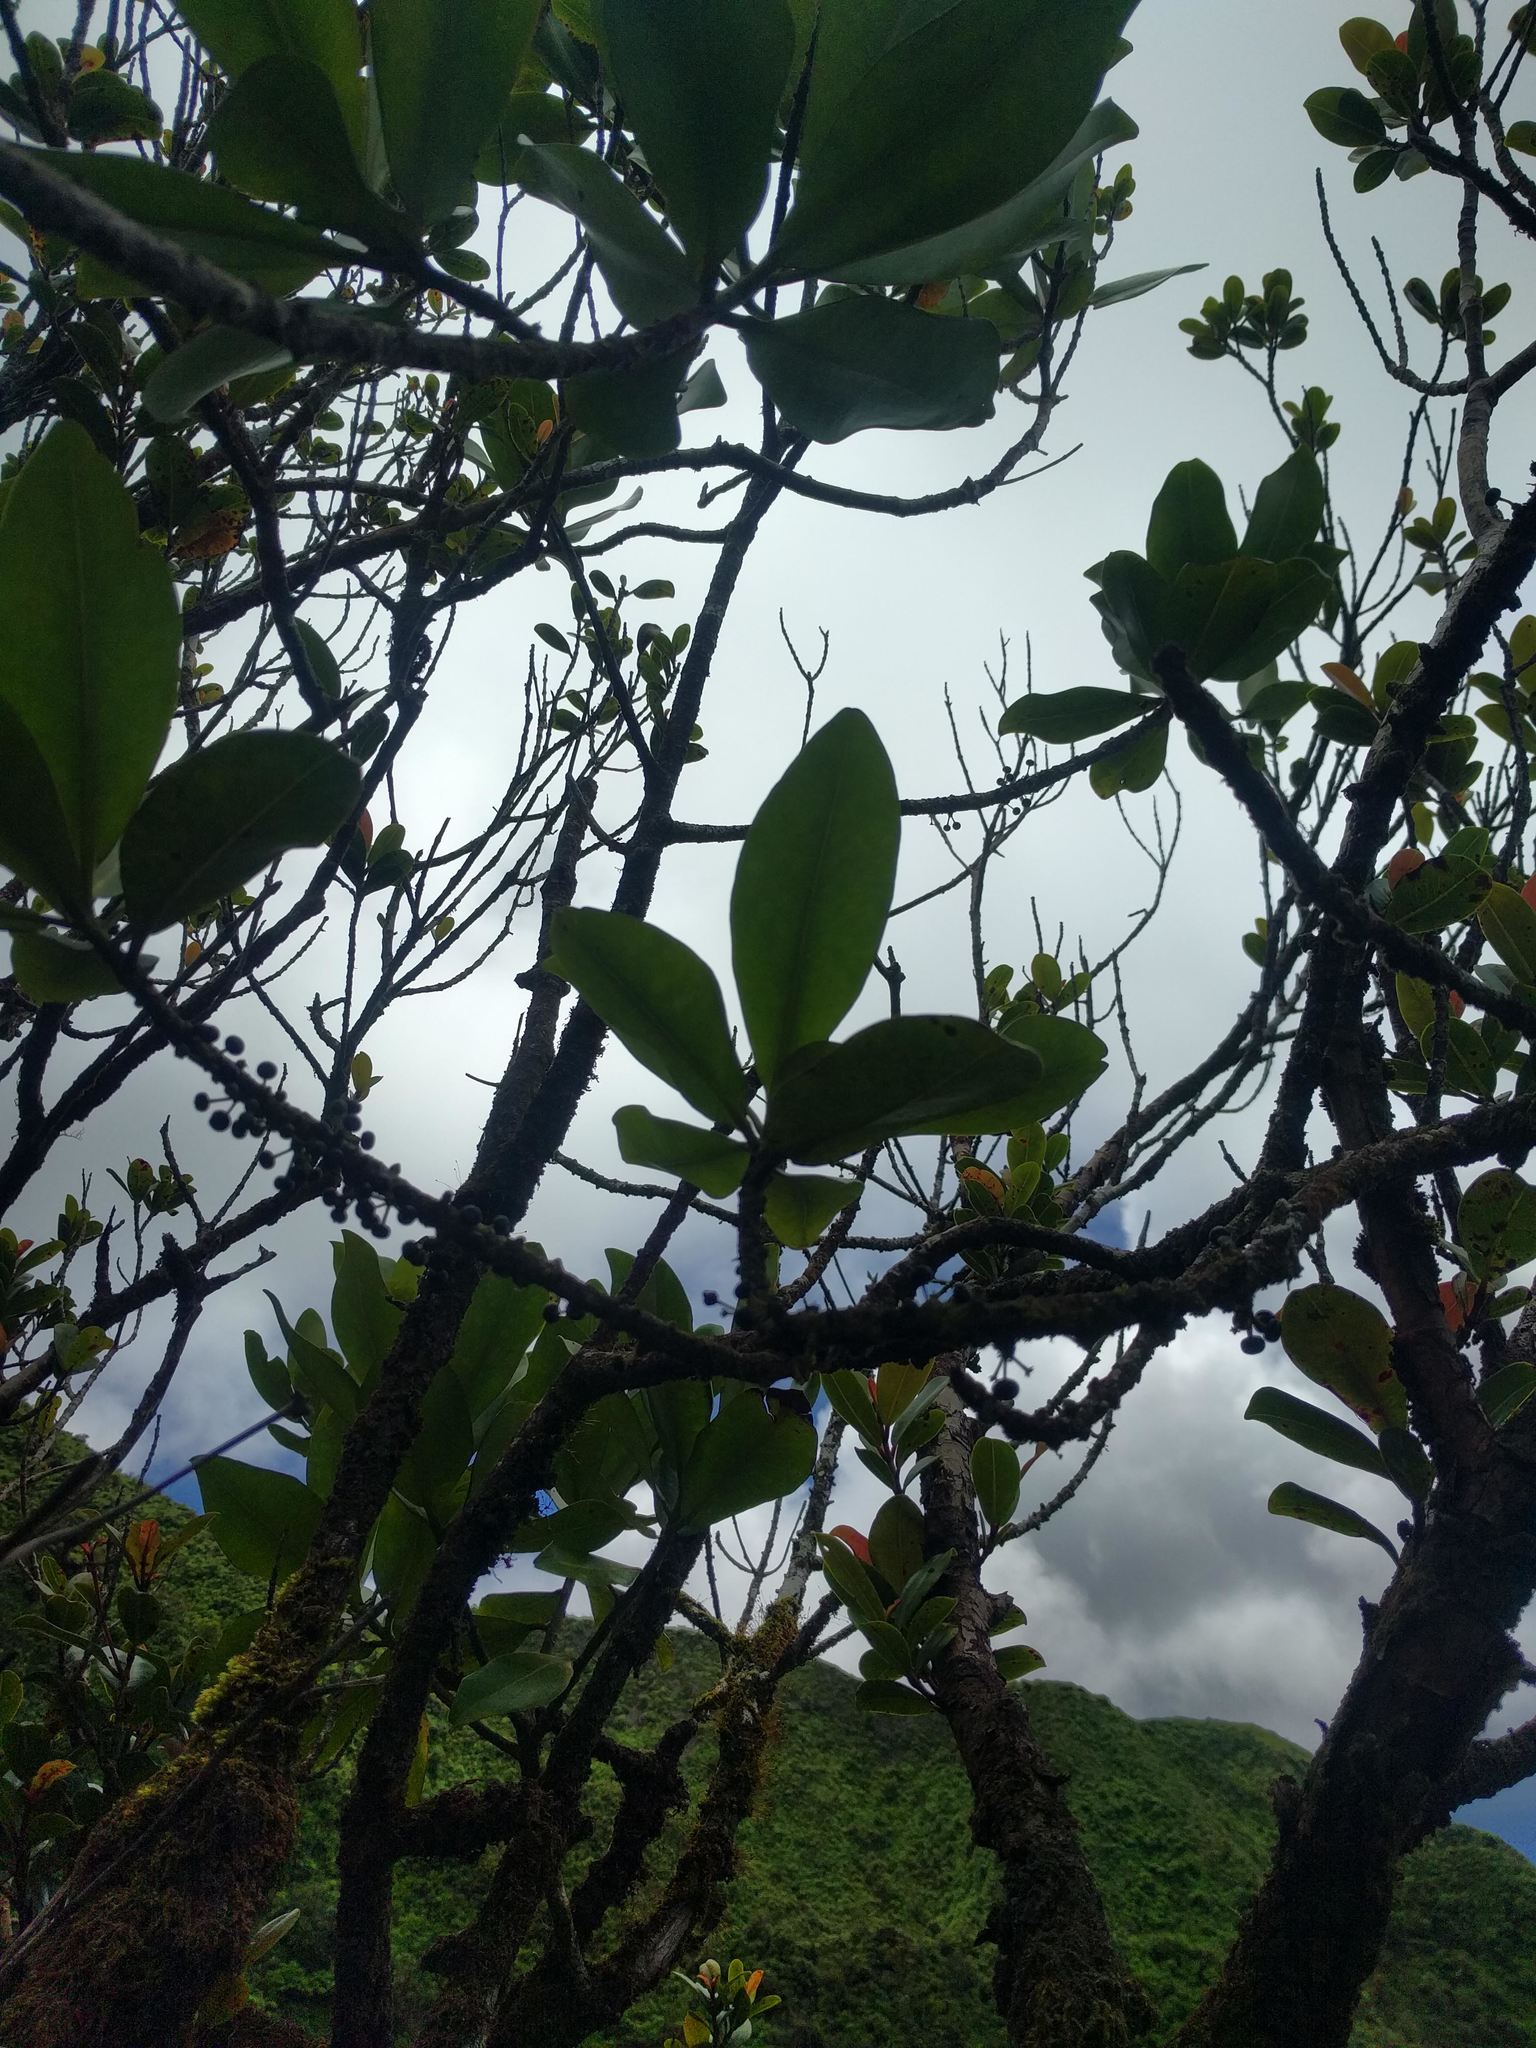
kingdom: Plantae
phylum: Tracheophyta
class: Magnoliopsida
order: Ericales
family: Primulaceae
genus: Myrsine
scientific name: Myrsine lessertiana
